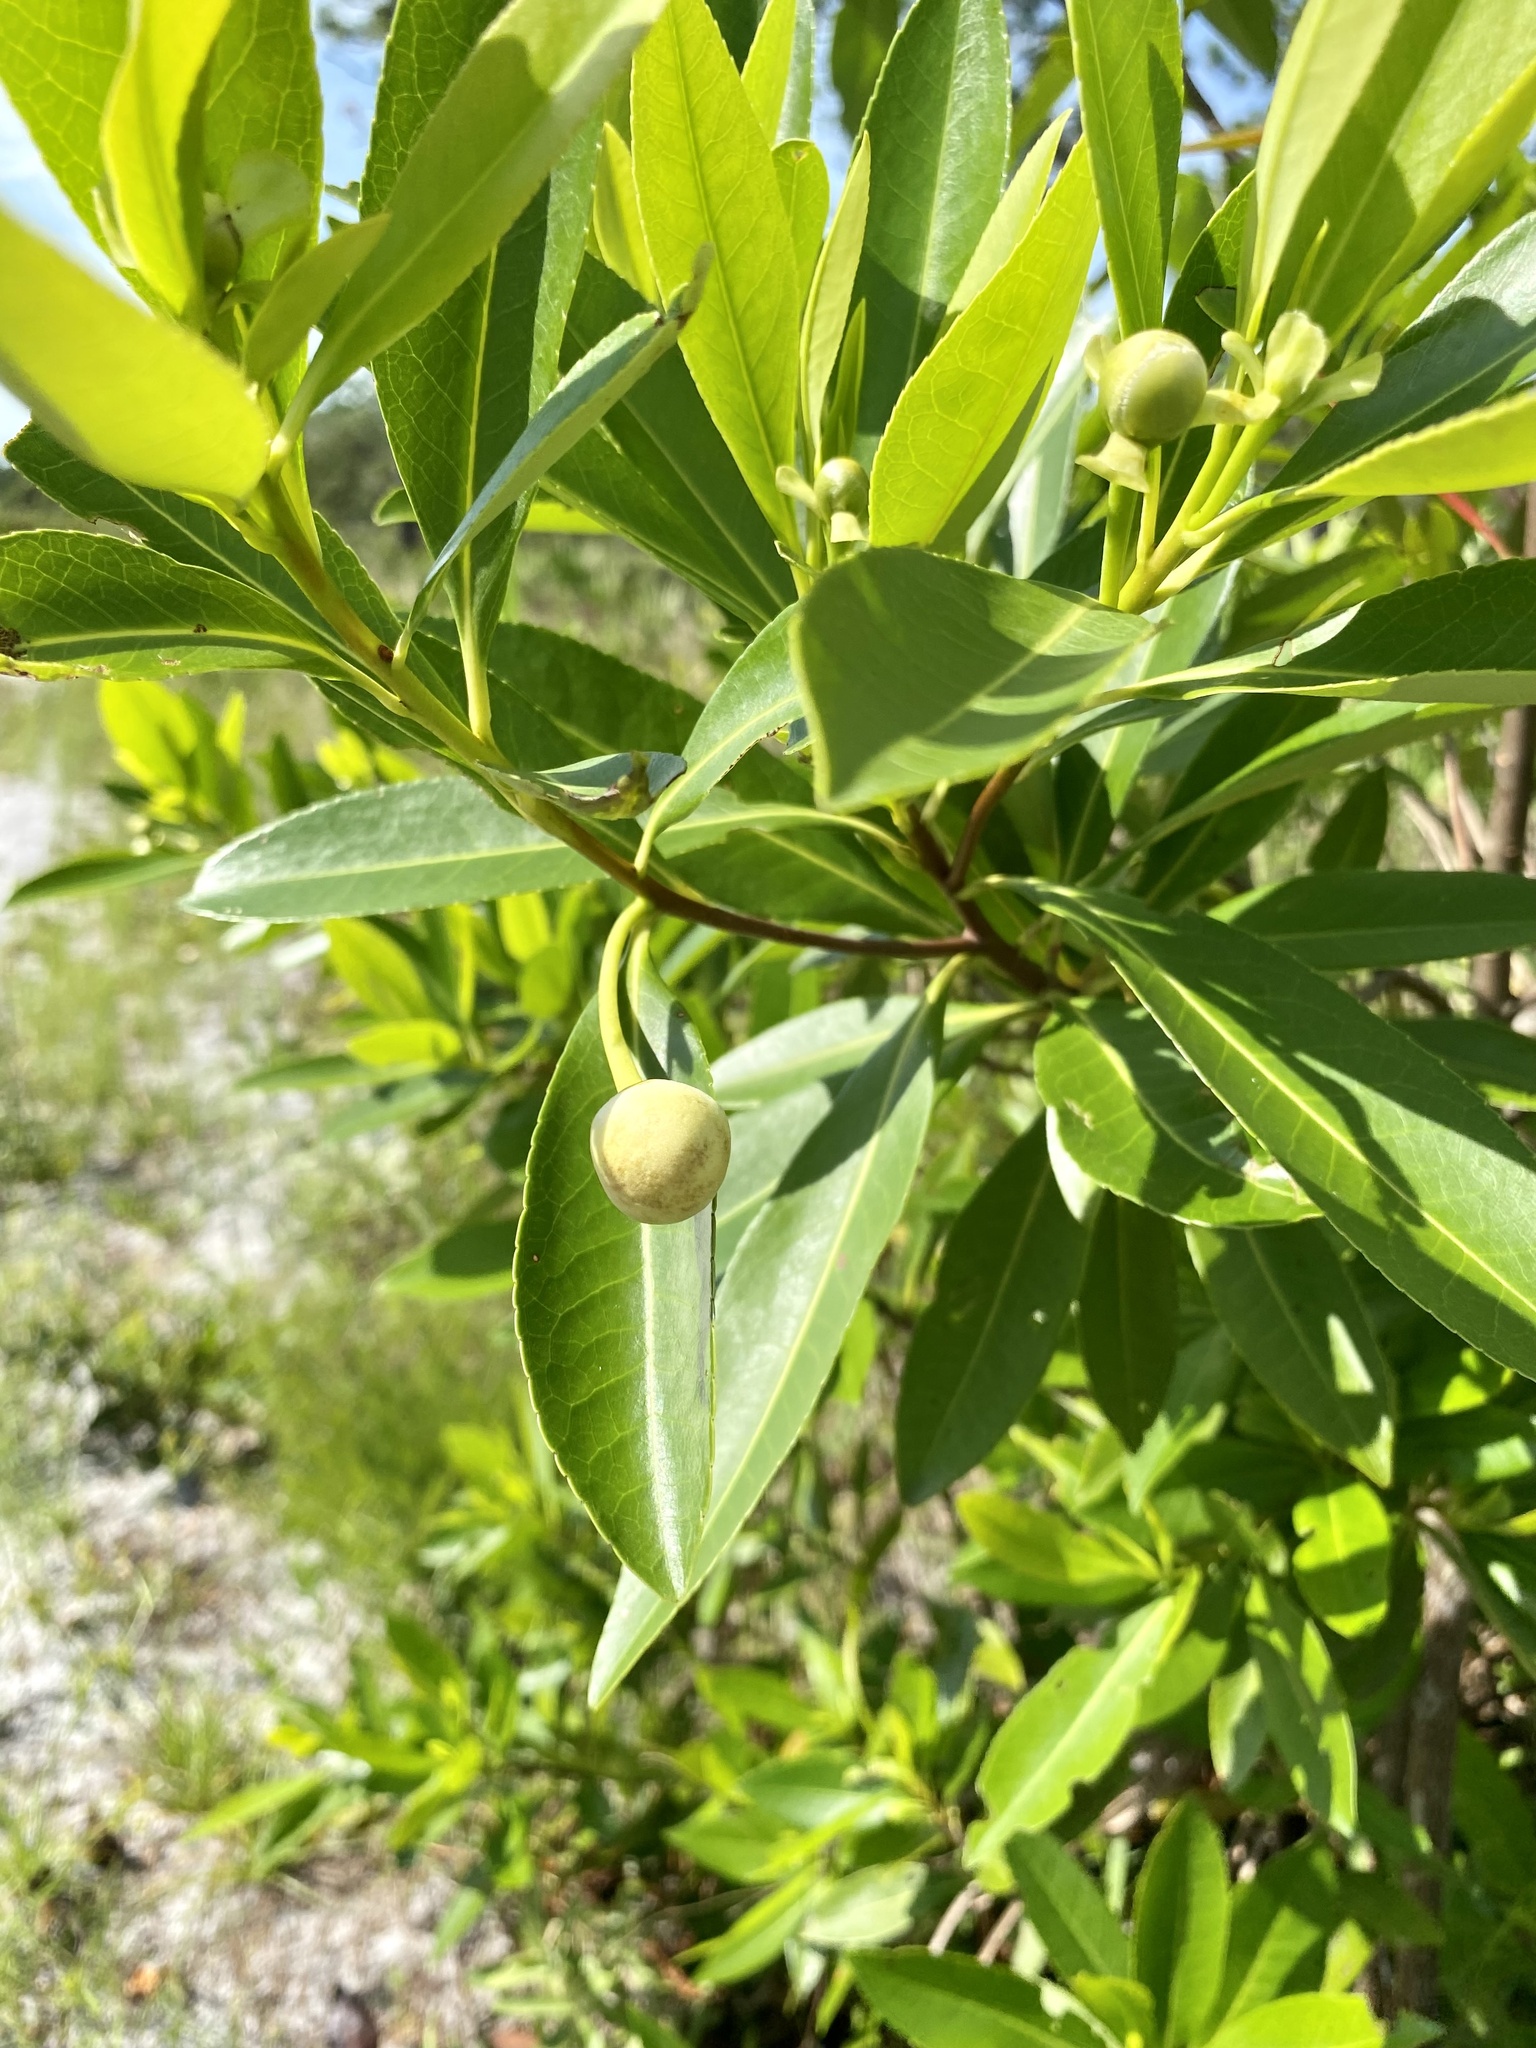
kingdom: Plantae
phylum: Tracheophyta
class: Magnoliopsida
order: Ericales
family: Theaceae
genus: Gordonia
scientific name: Gordonia lasianthus
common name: Loblolly bay
